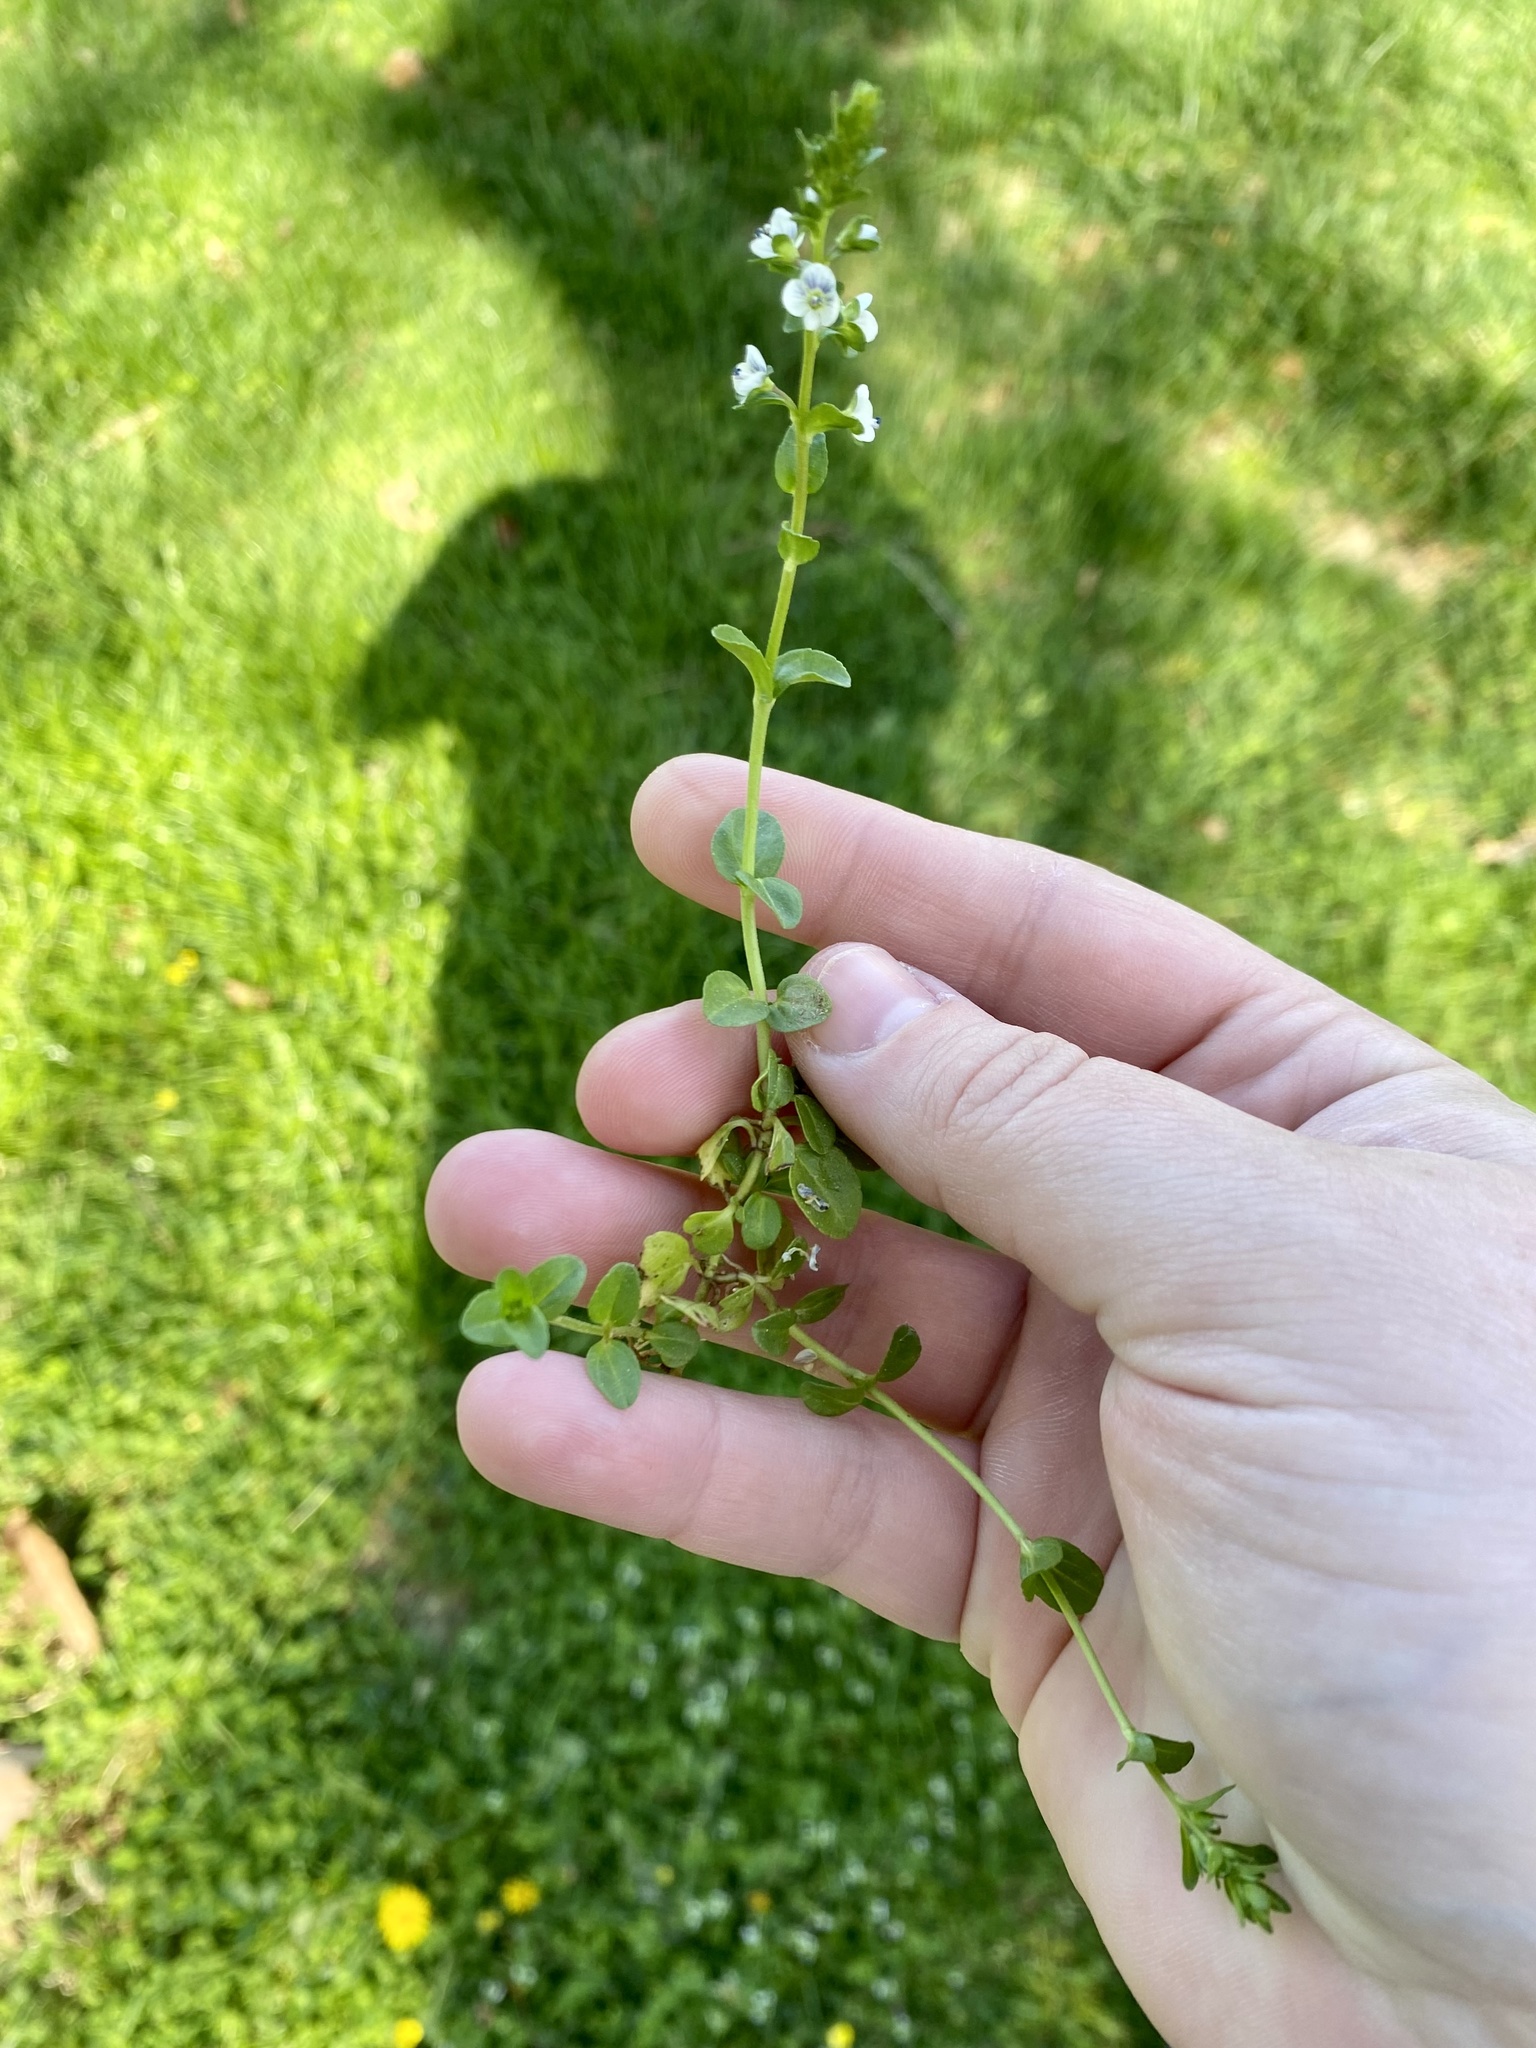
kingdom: Plantae
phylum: Tracheophyta
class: Magnoliopsida
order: Lamiales
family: Plantaginaceae
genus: Veronica
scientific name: Veronica serpyllifolia
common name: Thyme-leaved speedwell
